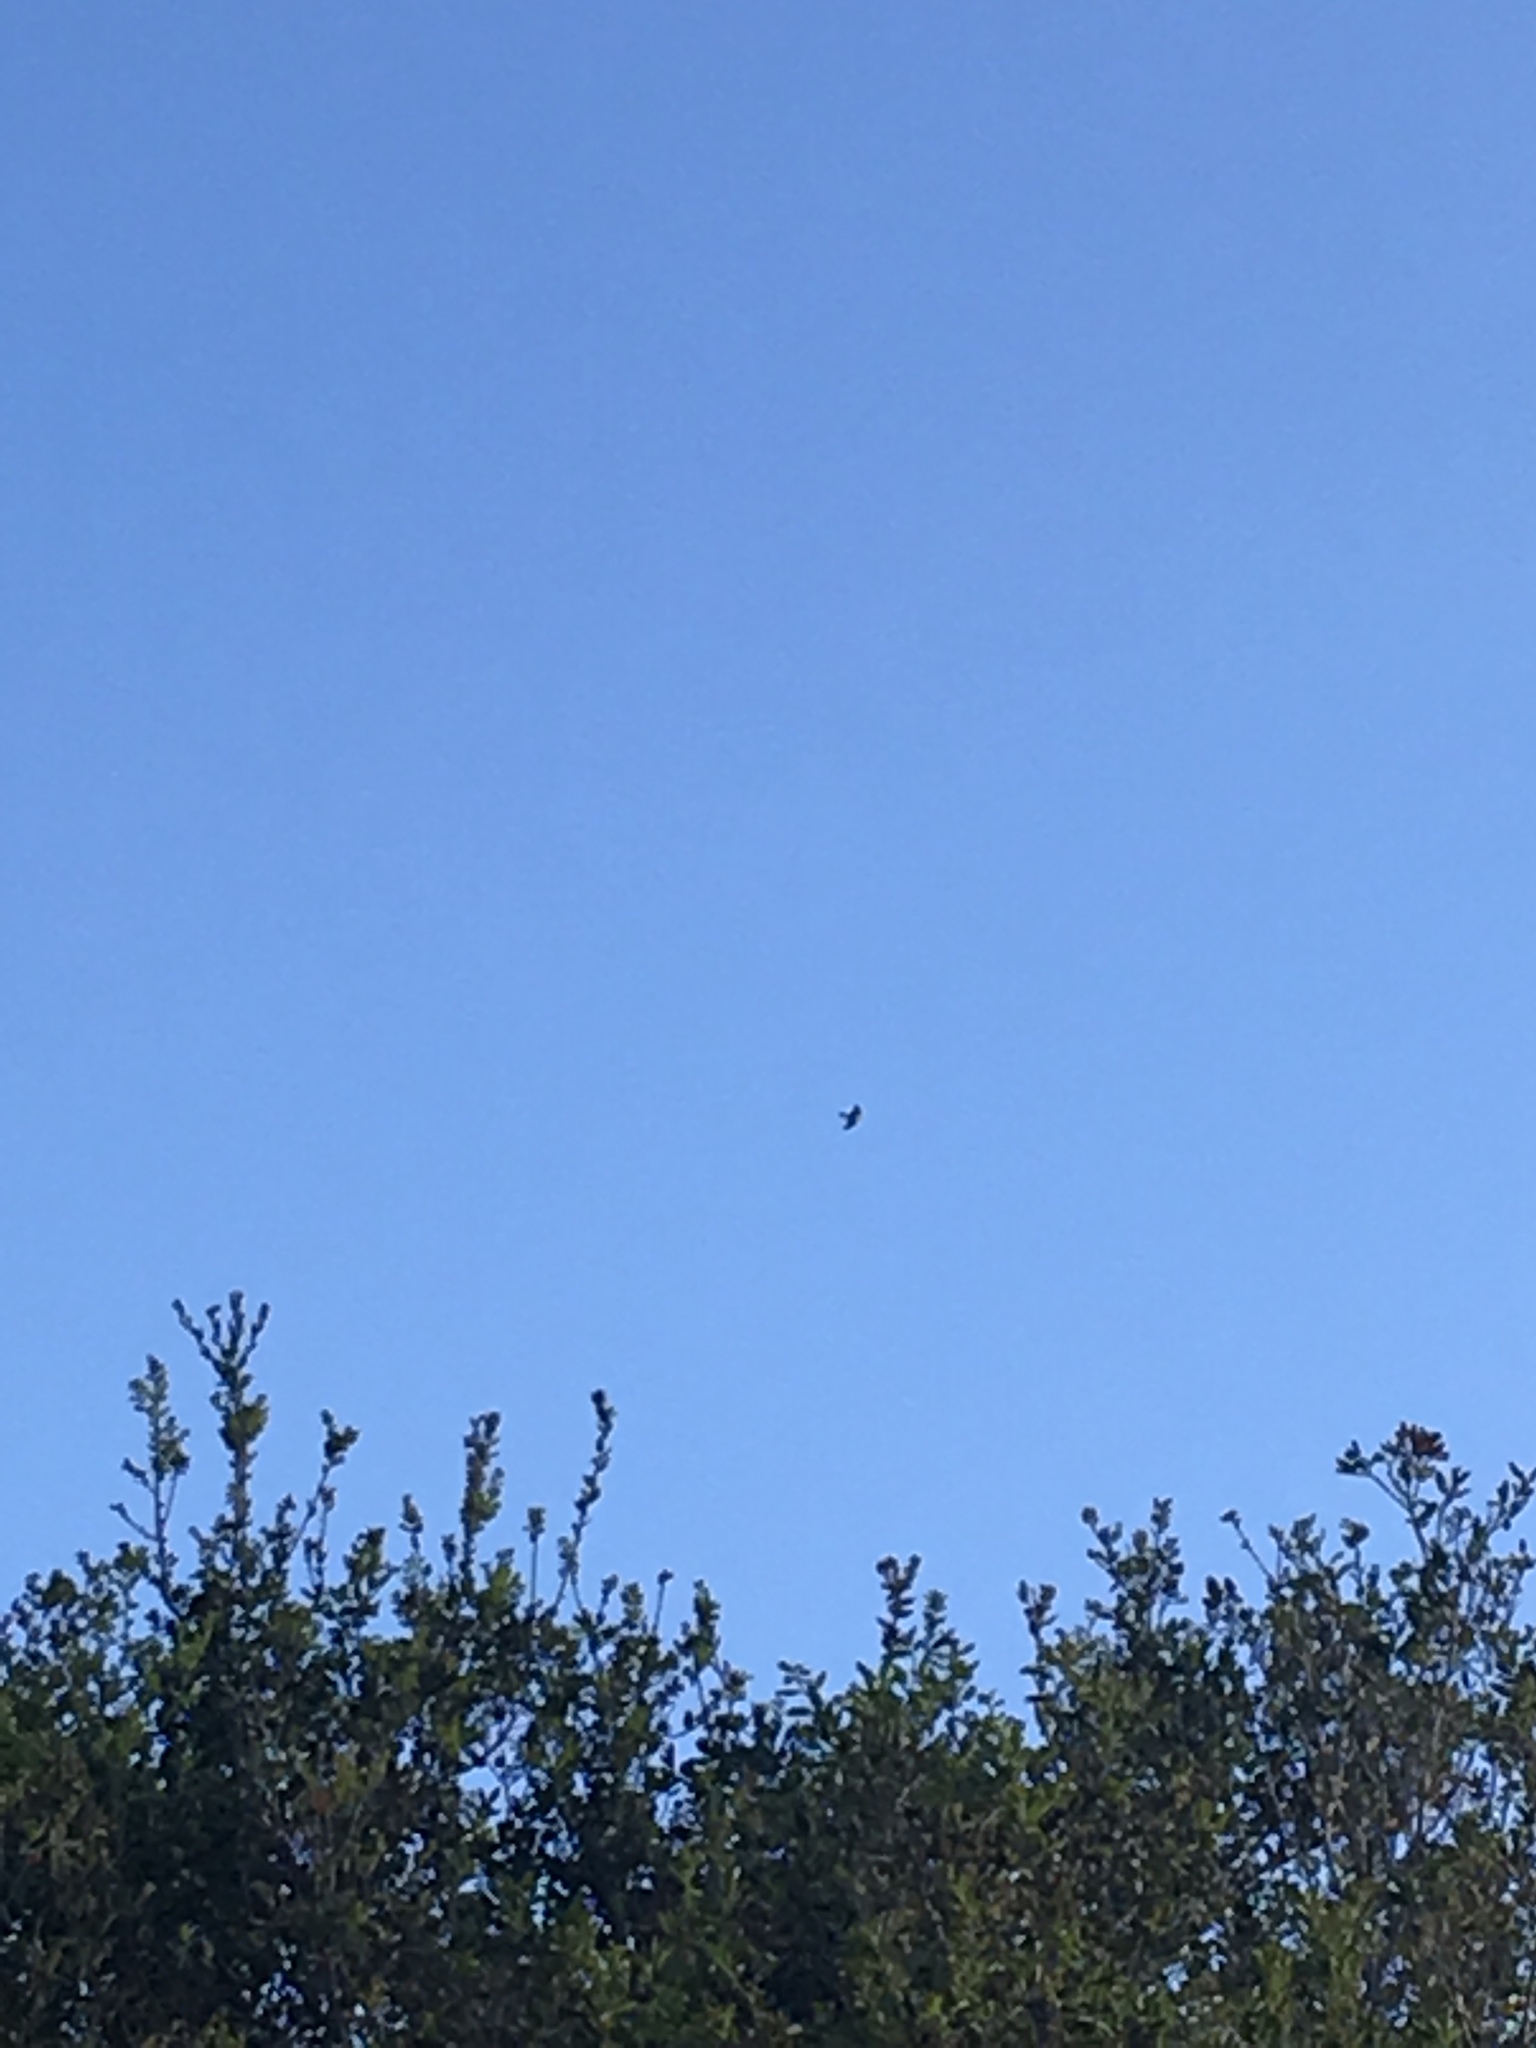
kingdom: Animalia
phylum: Chordata
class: Aves
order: Accipitriformes
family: Accipitridae
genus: Elanus
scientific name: Elanus leucurus
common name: White-tailed kite
